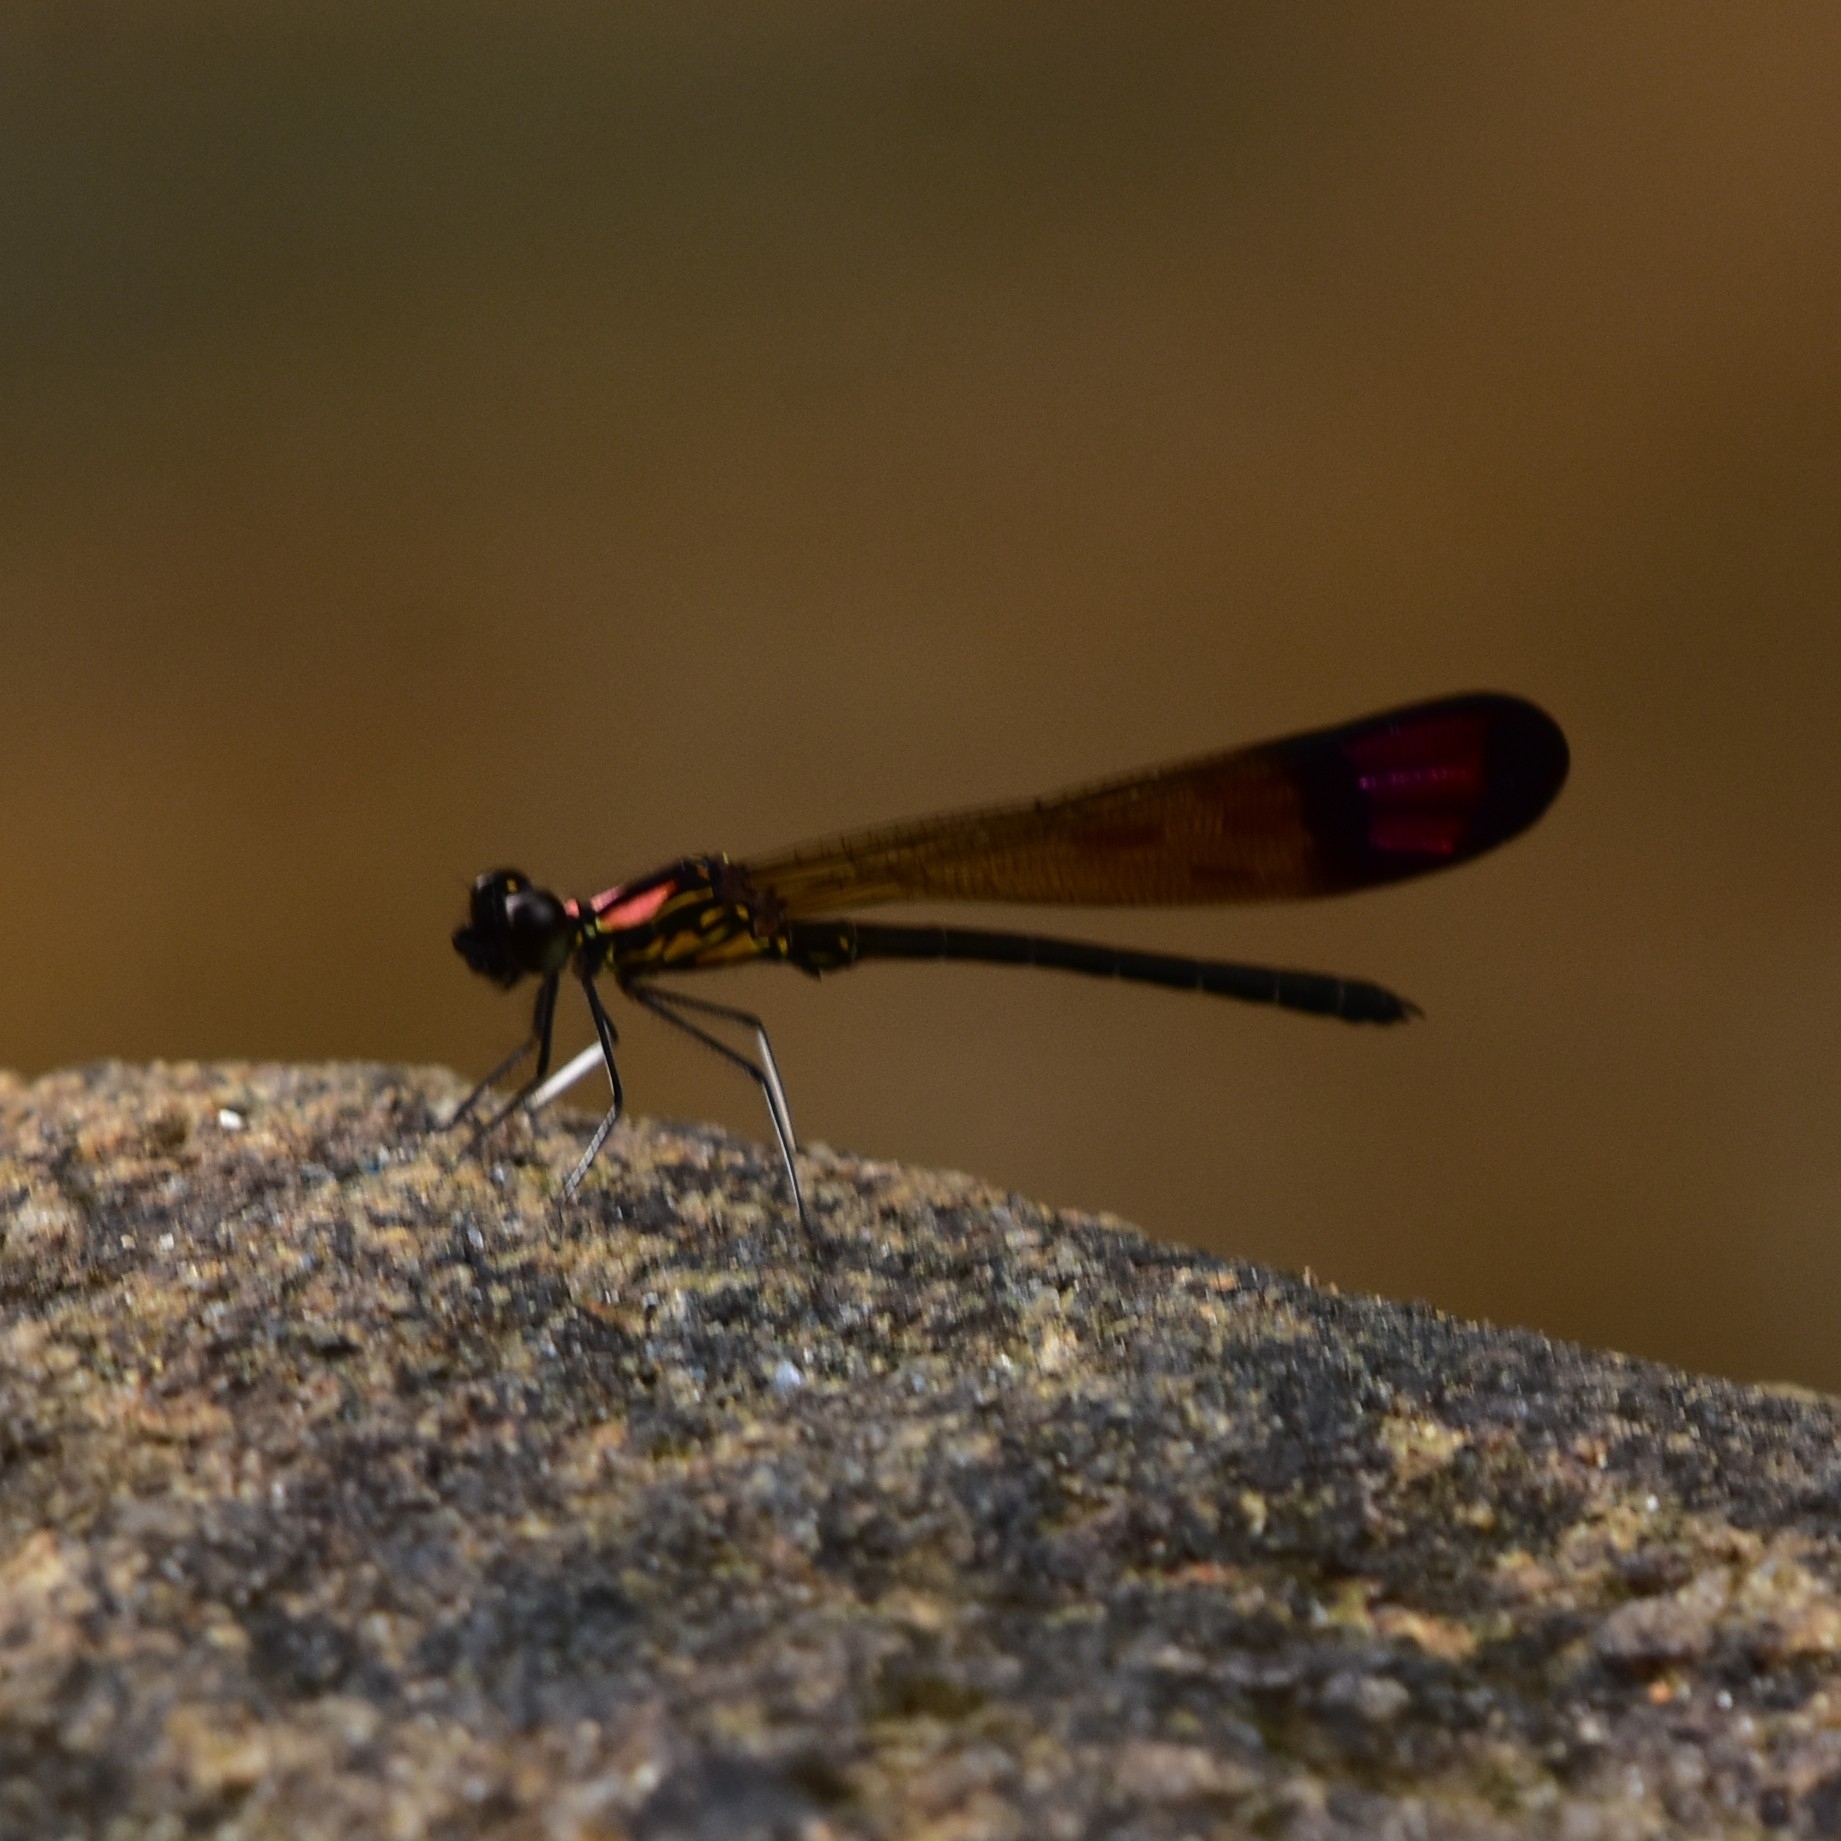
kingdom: Animalia
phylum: Arthropoda
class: Insecta
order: Odonata
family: Chlorocyphidae
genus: Heliocypha
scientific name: Heliocypha bisignata
